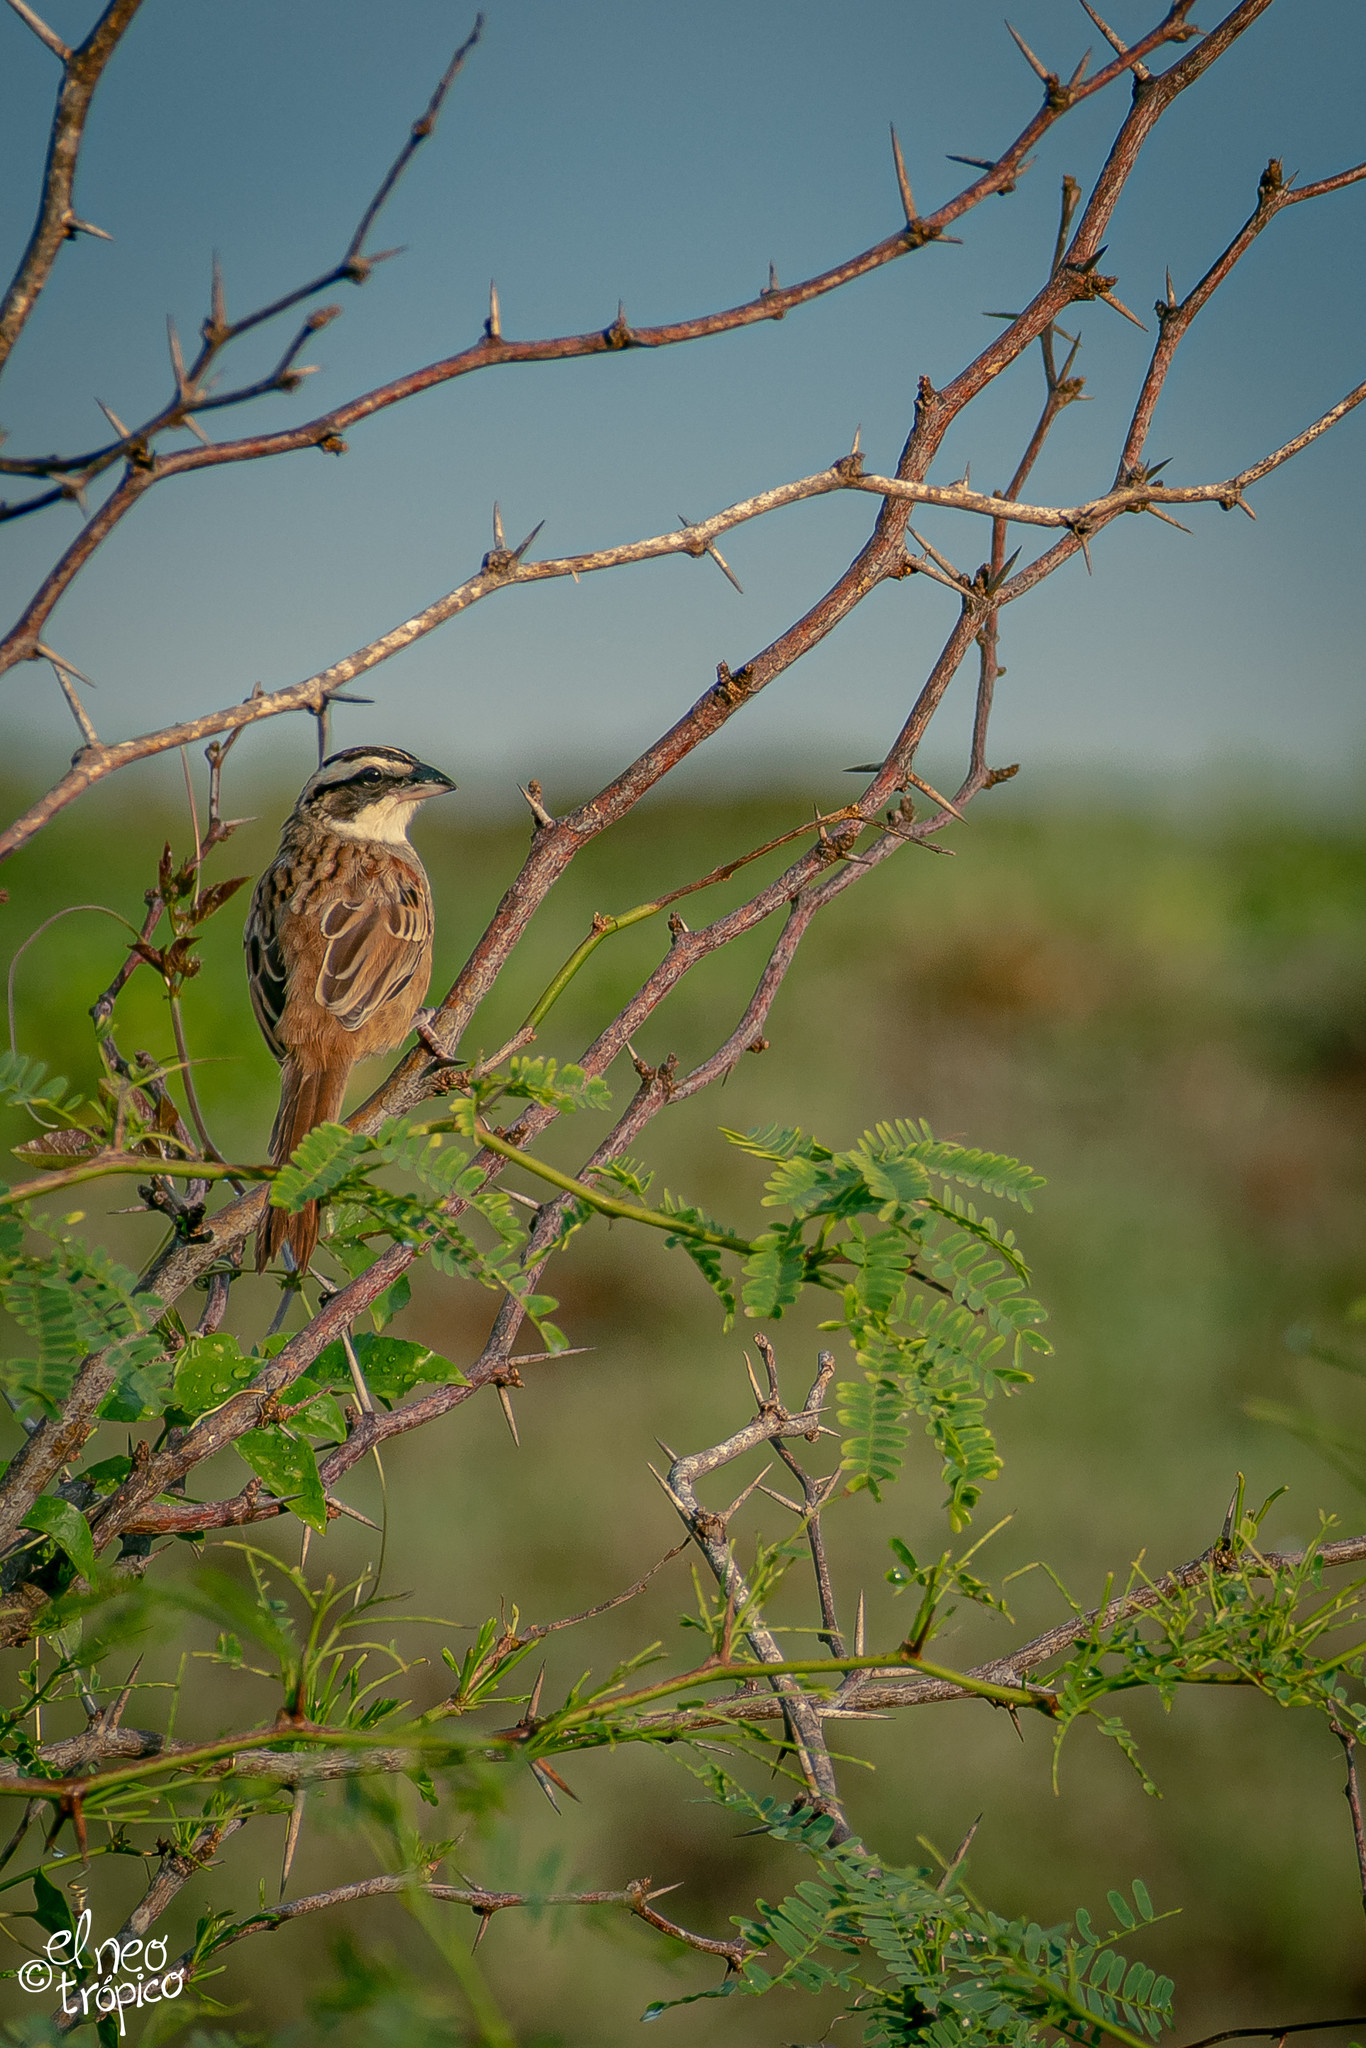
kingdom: Animalia
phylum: Chordata
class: Aves
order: Passeriformes
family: Passerellidae
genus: Peucaea
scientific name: Peucaea ruficauda
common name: Stripe-headed sparrow
